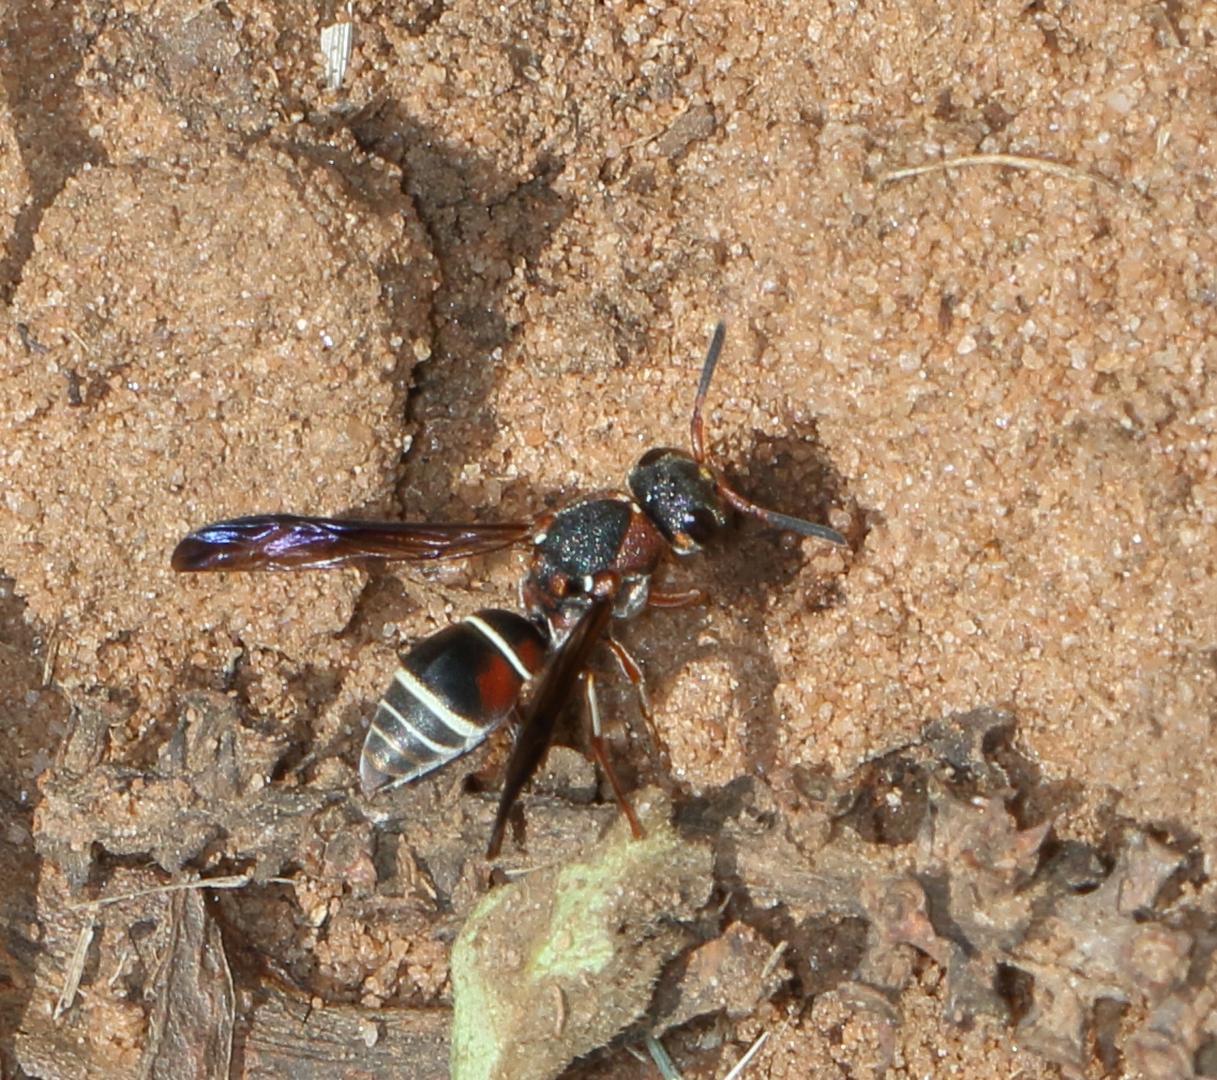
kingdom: Animalia
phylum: Arthropoda
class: Insecta
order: Hymenoptera
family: Eumenidae
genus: Antepipona
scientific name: Antepipona
